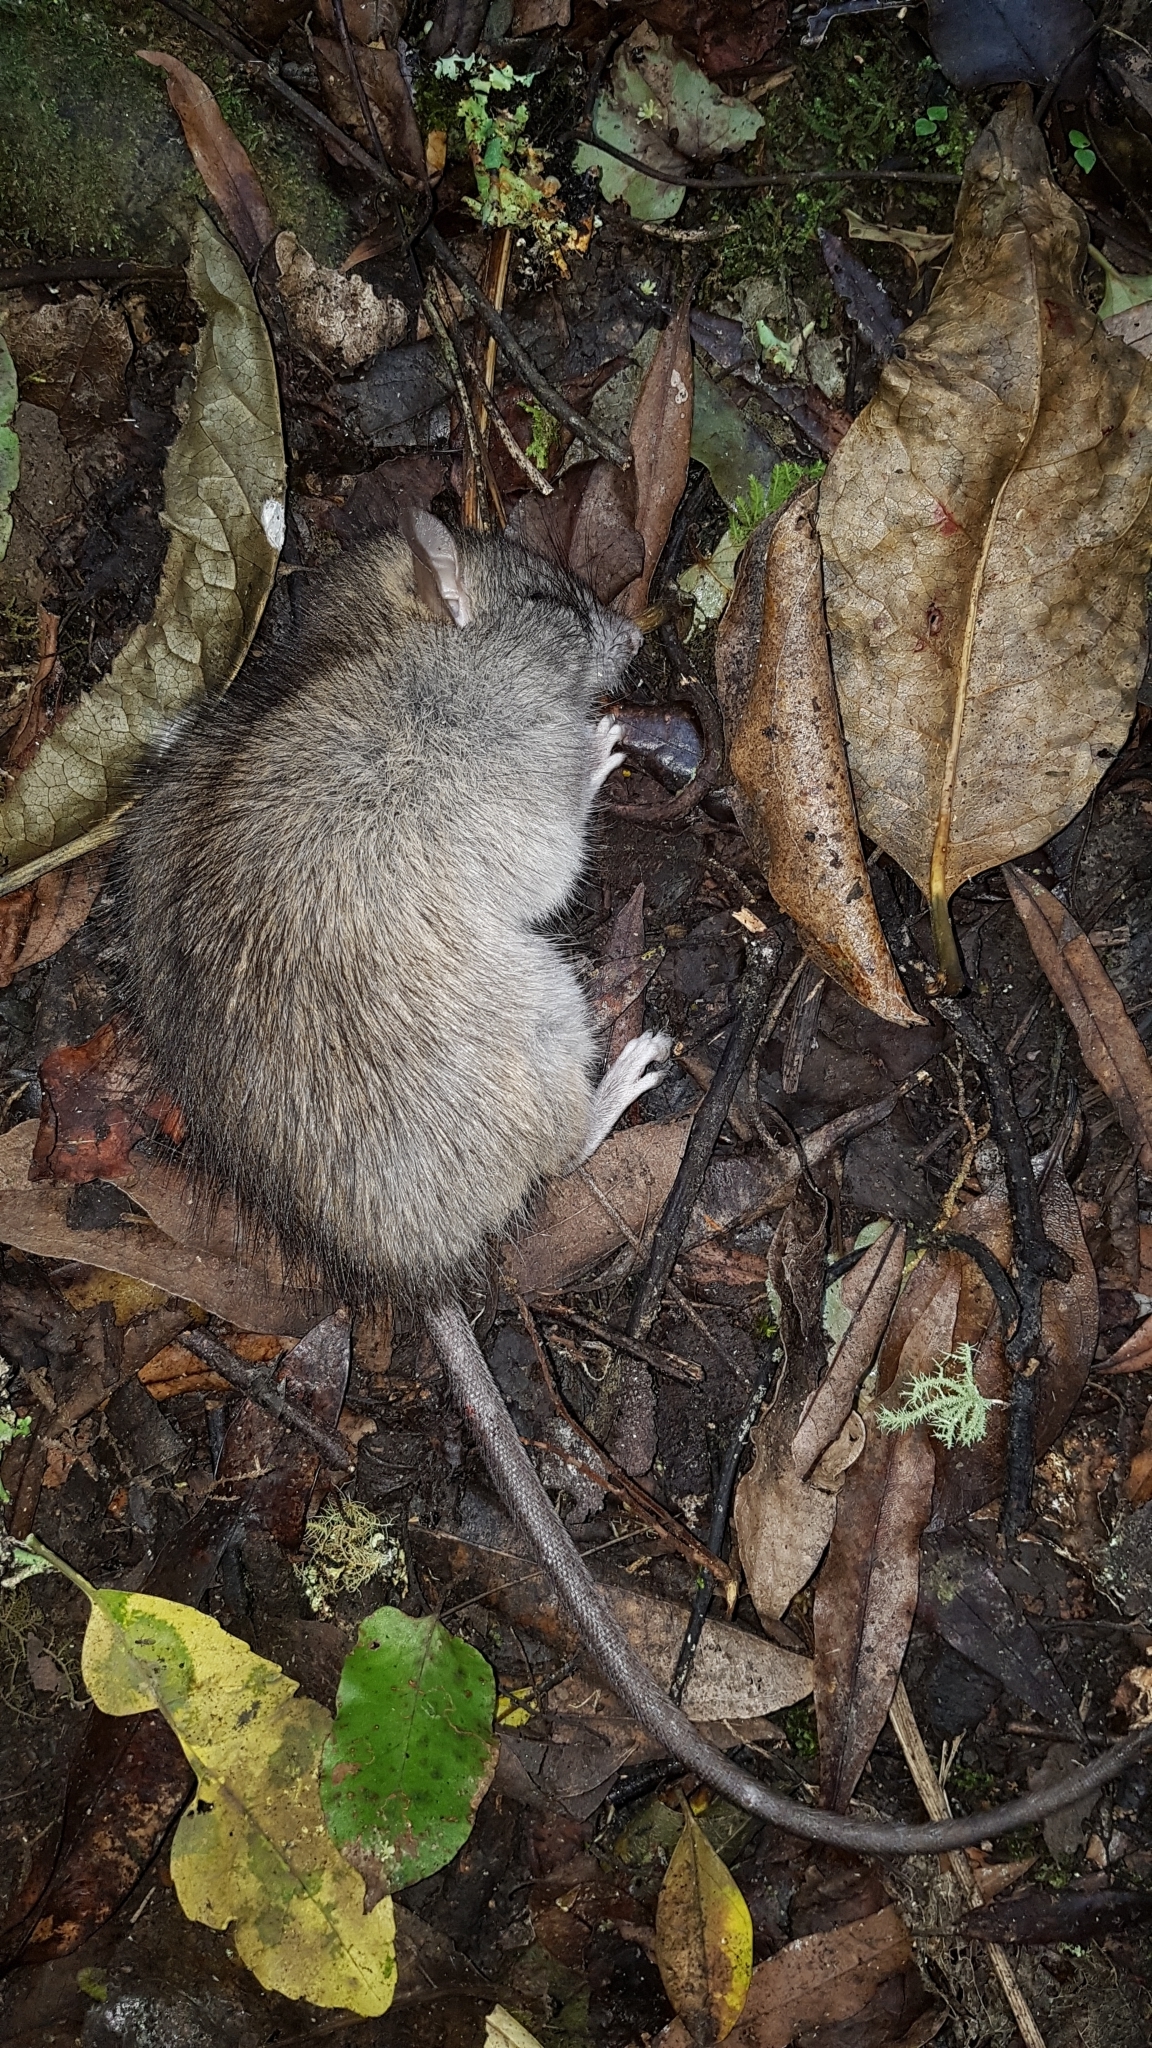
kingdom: Animalia
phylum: Chordata
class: Mammalia
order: Rodentia
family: Muridae
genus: Rattus
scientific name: Rattus rattus
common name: Black rat
